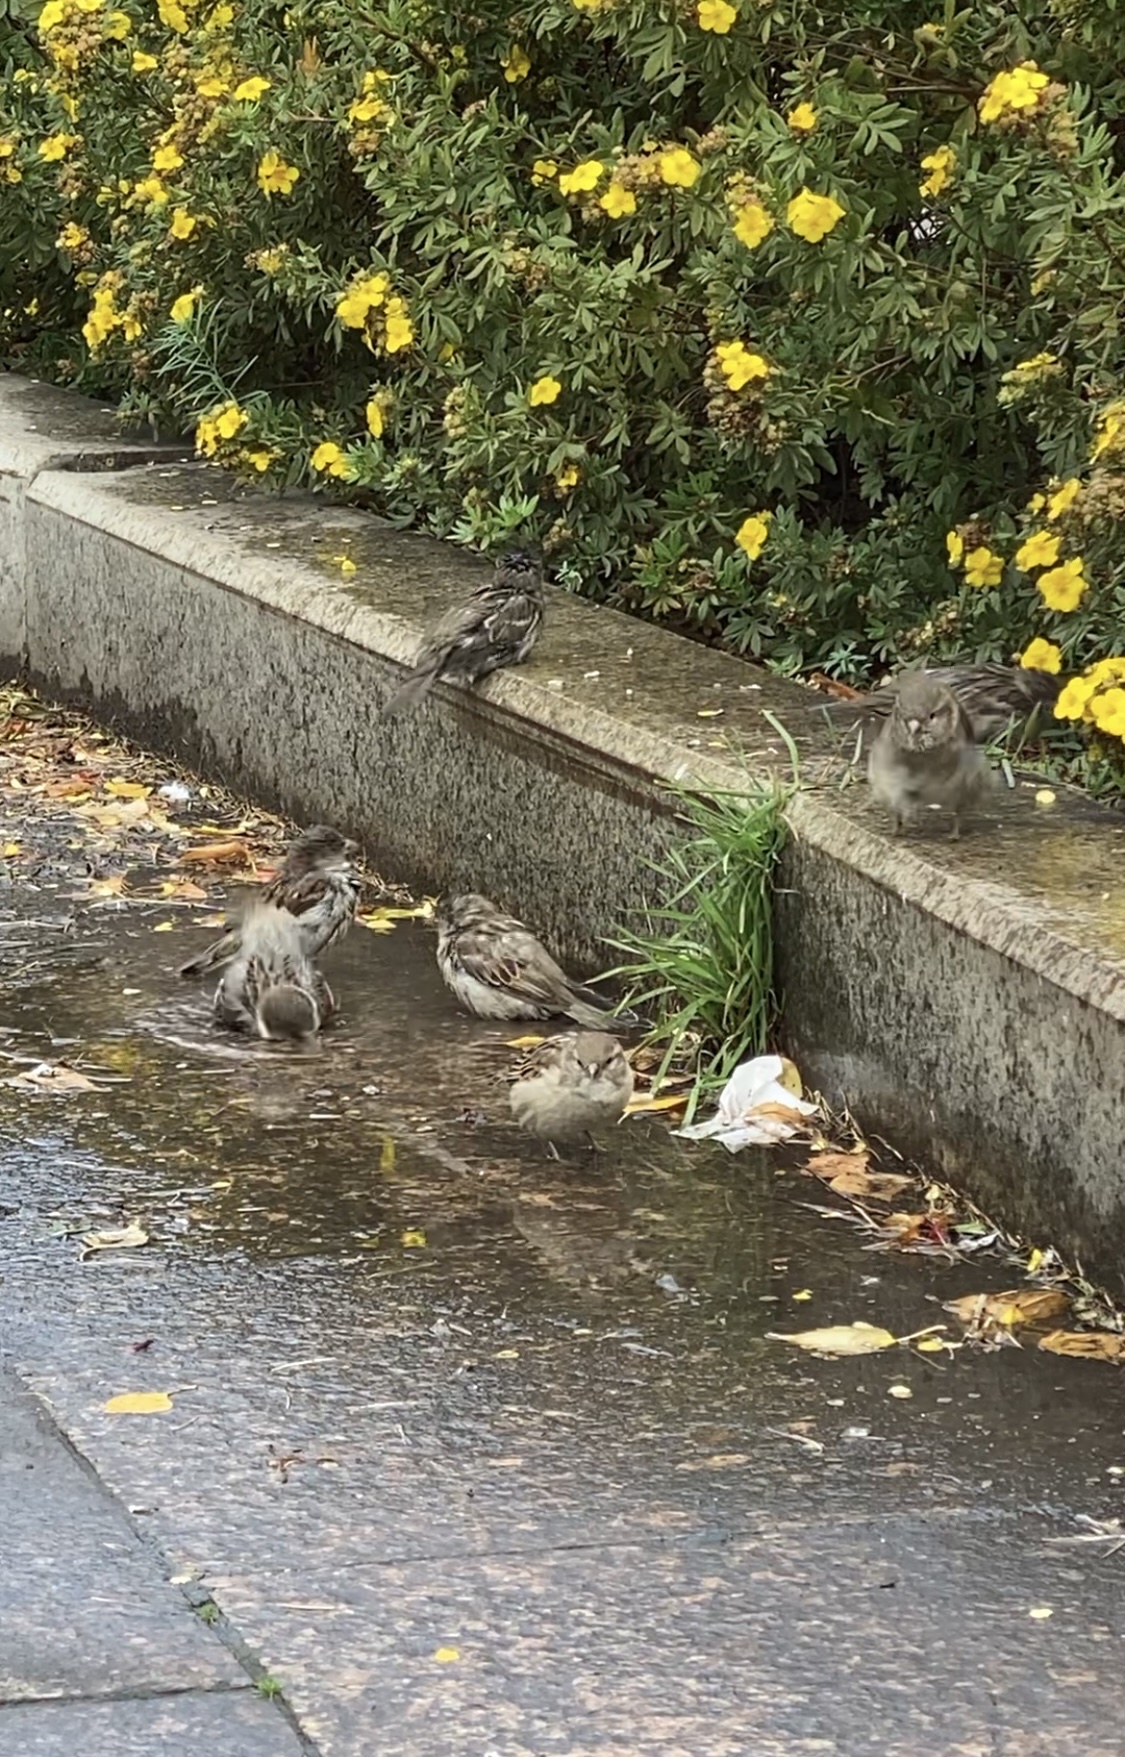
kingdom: Animalia
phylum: Chordata
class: Aves
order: Passeriformes
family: Passeridae
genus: Passer
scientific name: Passer domesticus
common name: House sparrow
